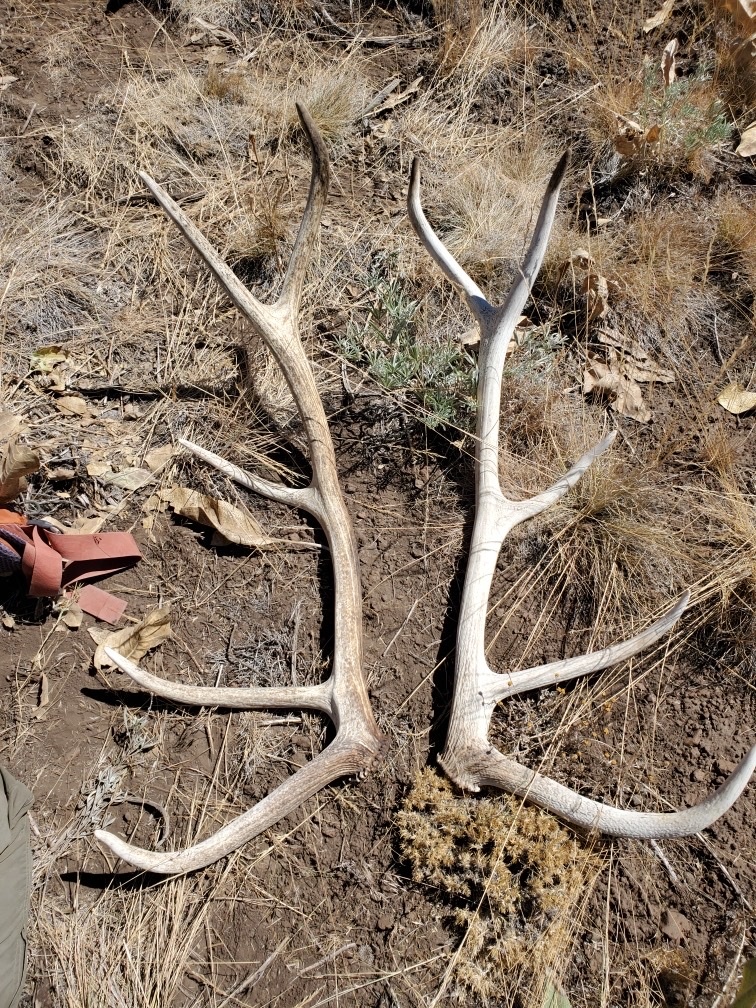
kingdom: Animalia
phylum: Chordata
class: Mammalia
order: Artiodactyla
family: Cervidae
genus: Cervus
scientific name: Cervus elaphus
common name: Red deer
